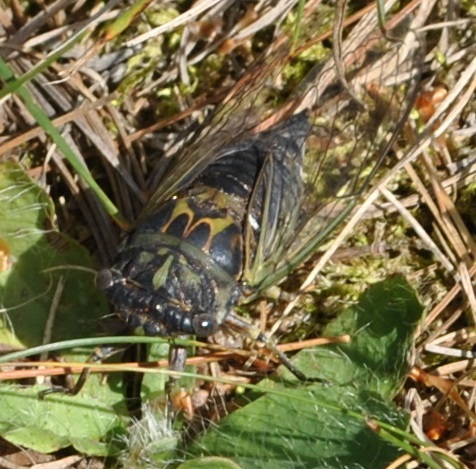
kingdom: Animalia
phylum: Arthropoda
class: Insecta
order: Hemiptera
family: Cicadidae
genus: Neotibicen
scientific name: Neotibicen canicularis
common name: God-day cicada
